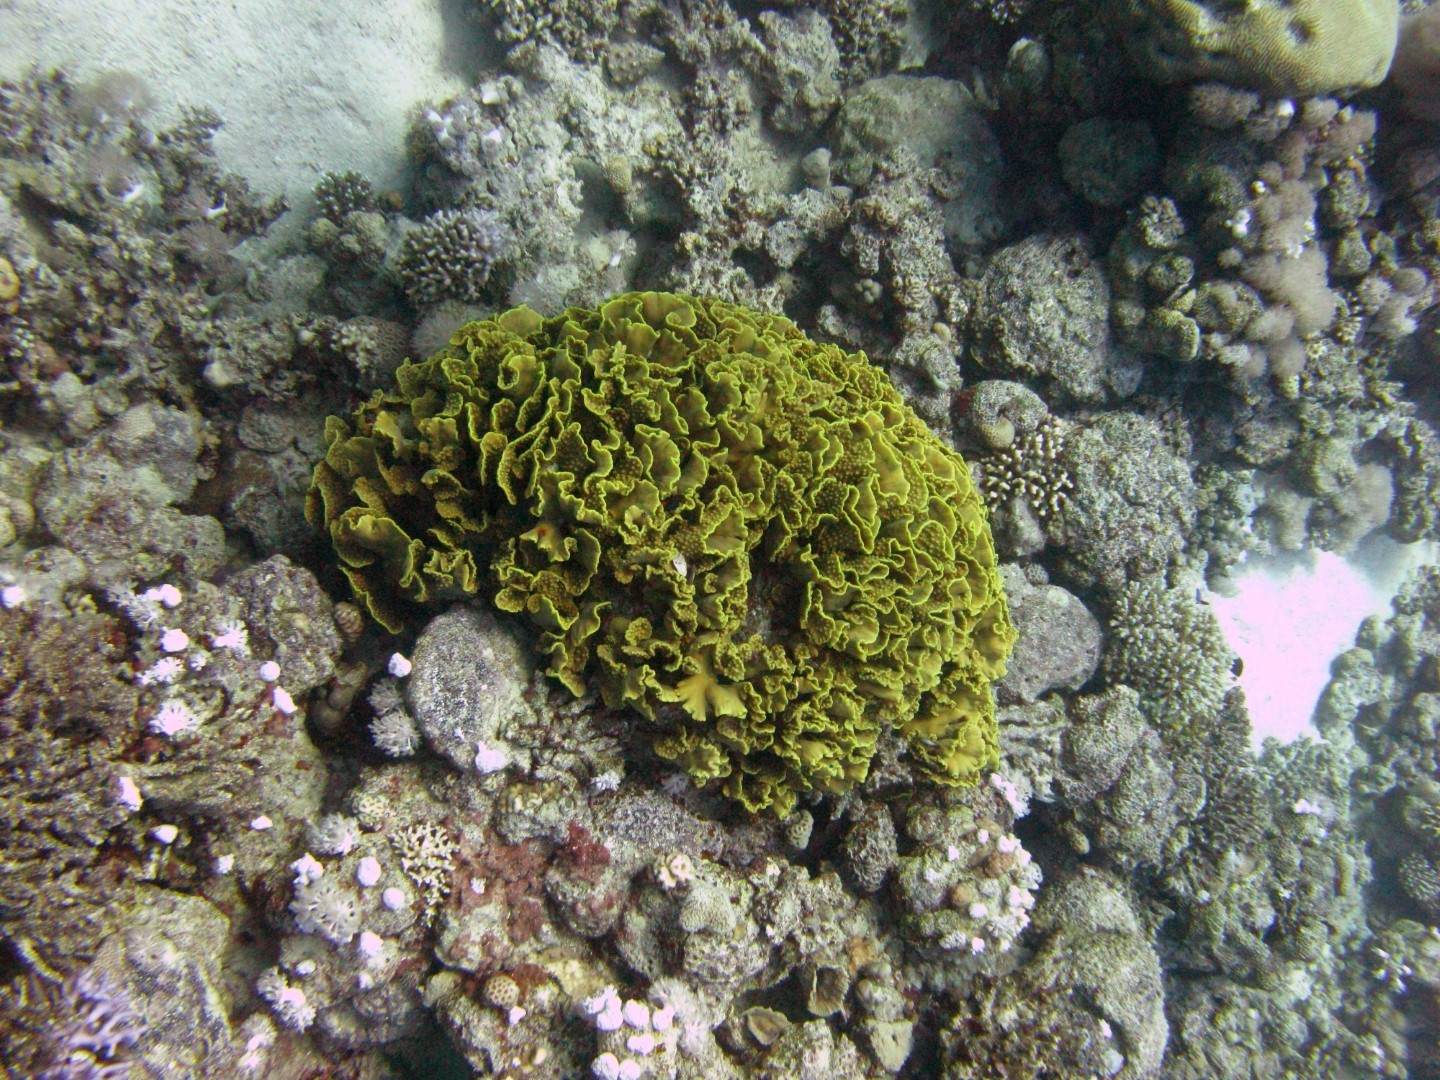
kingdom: Animalia
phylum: Cnidaria
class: Anthozoa
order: Scleractinia
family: Dendrophylliidae
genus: Turbinaria
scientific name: Turbinaria reniformis
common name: Disc coral
